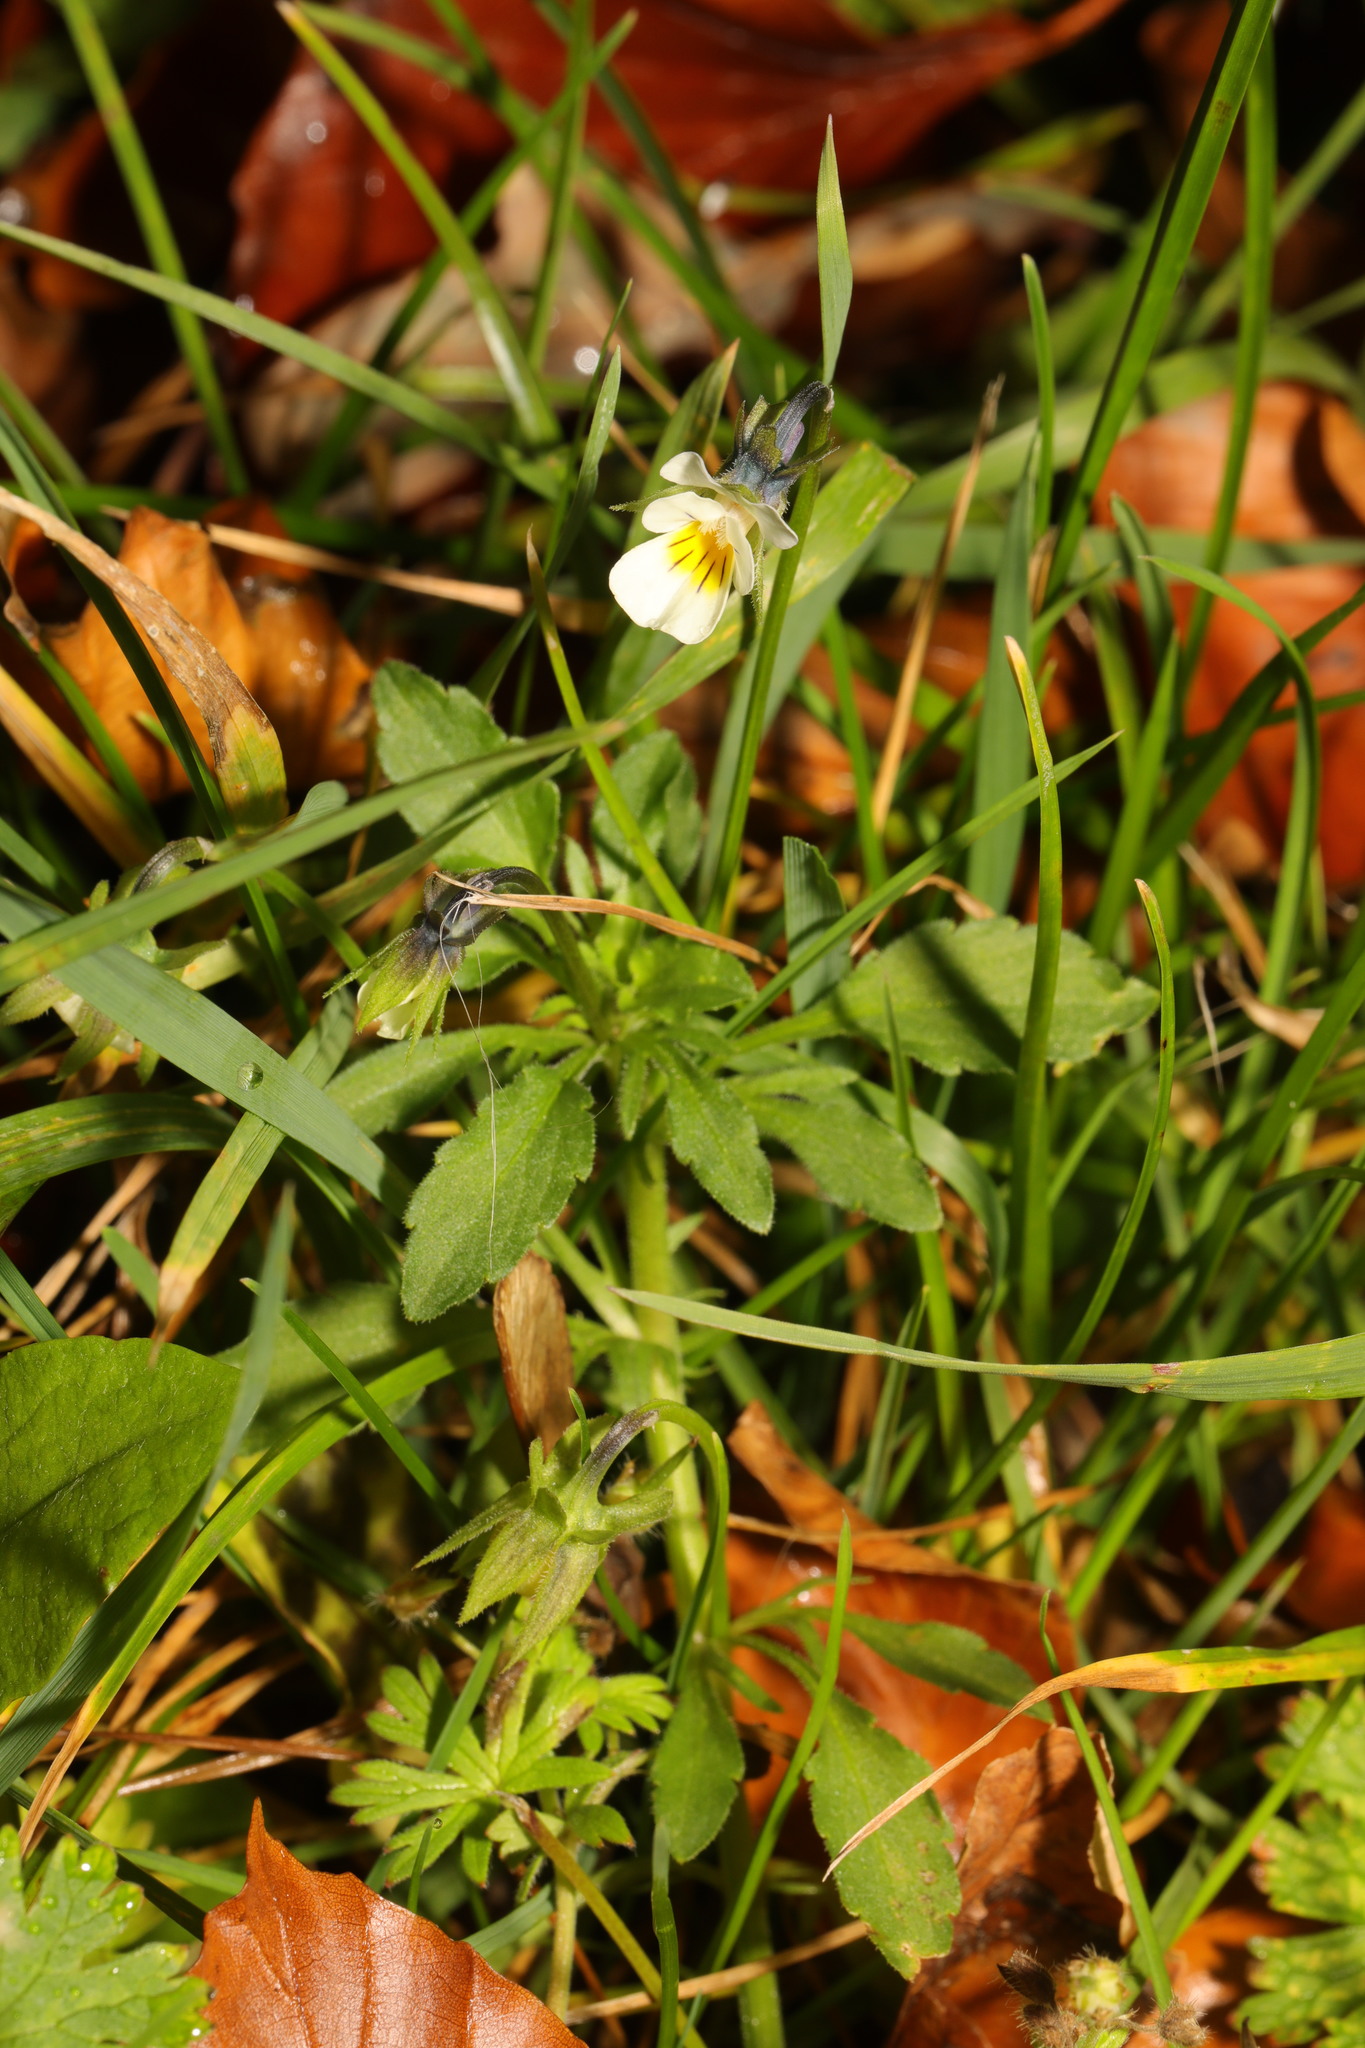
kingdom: Plantae
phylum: Tracheophyta
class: Magnoliopsida
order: Malpighiales
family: Violaceae
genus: Viola
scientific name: Viola arvensis
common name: Field pansy
